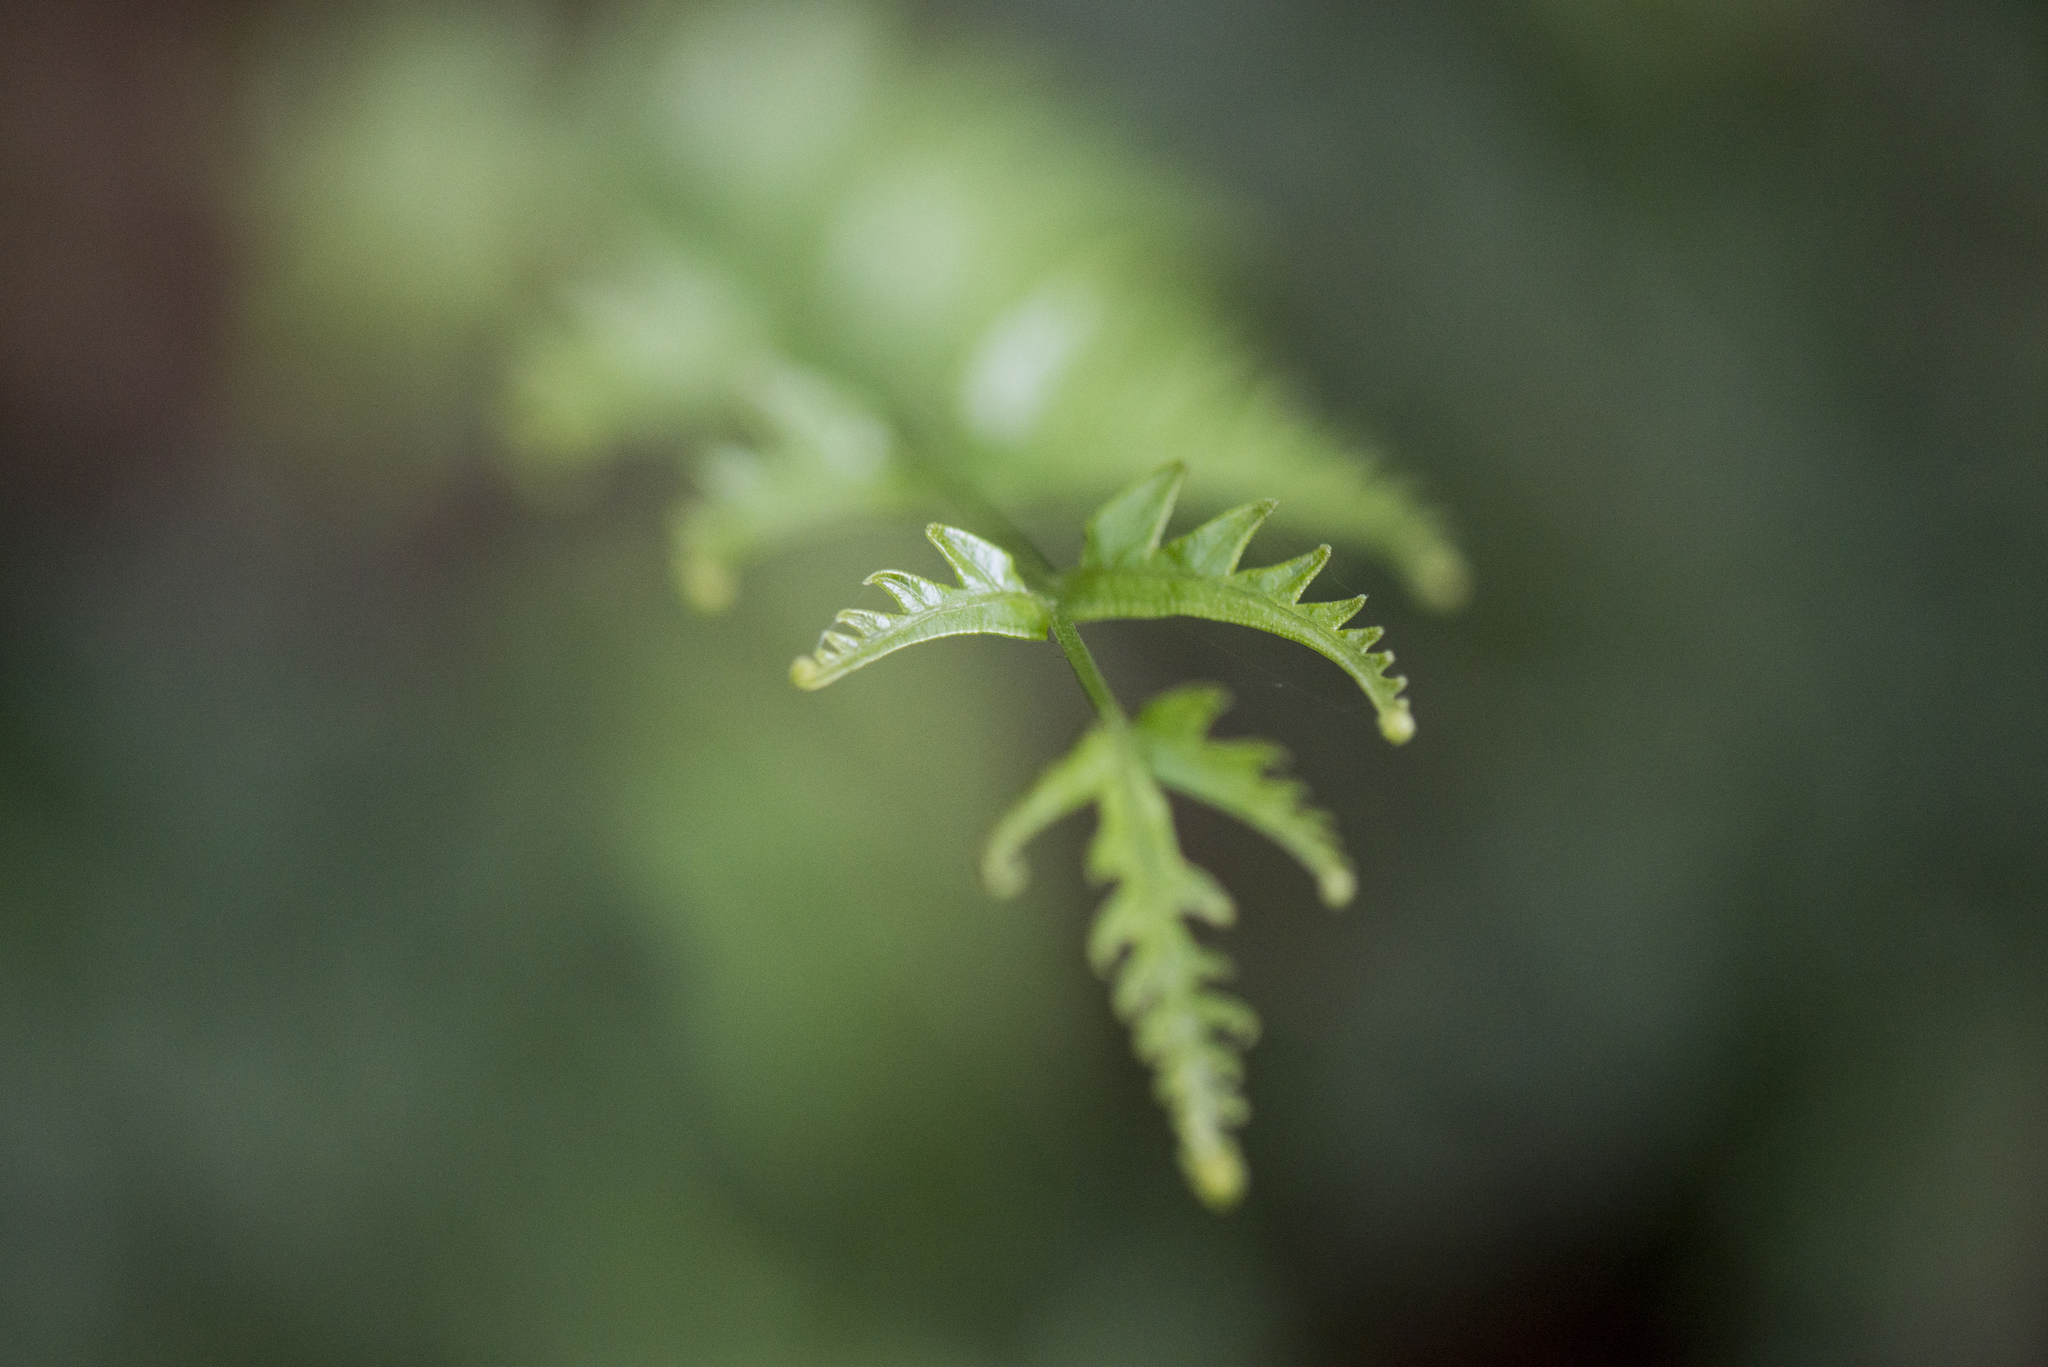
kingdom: Plantae
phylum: Tracheophyta
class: Polypodiopsida
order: Polypodiales
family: Pteridaceae
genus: Pteris
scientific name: Pteris semipinnata
